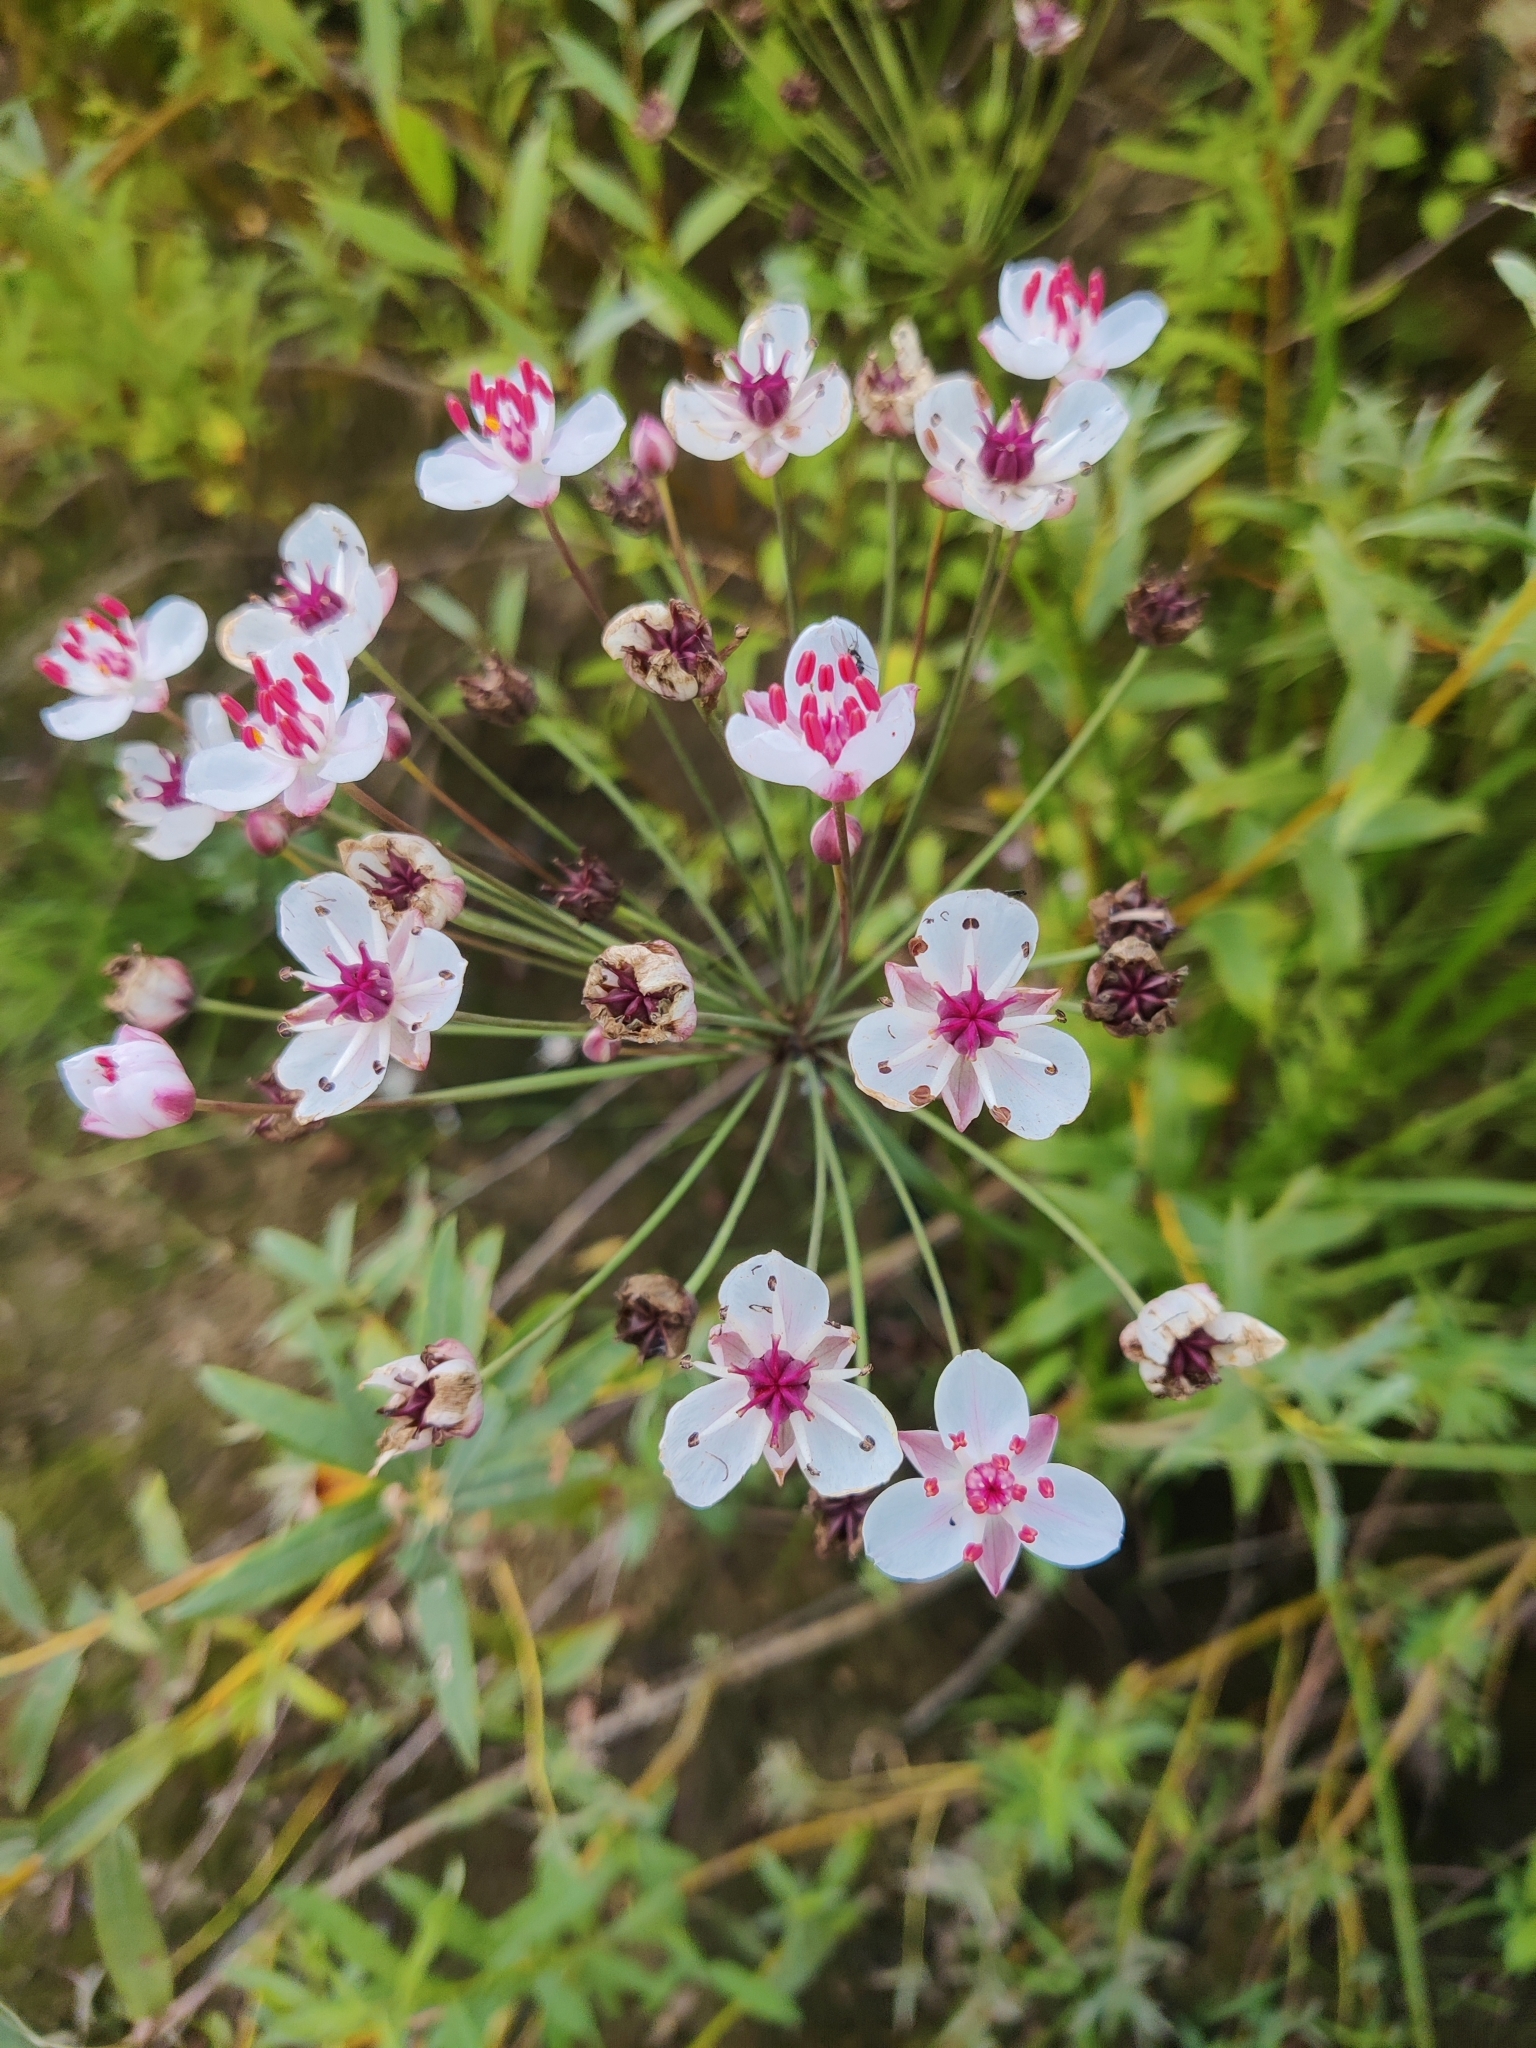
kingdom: Plantae
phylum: Tracheophyta
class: Liliopsida
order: Alismatales
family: Butomaceae
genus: Butomus
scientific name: Butomus umbellatus
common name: Flowering-rush
